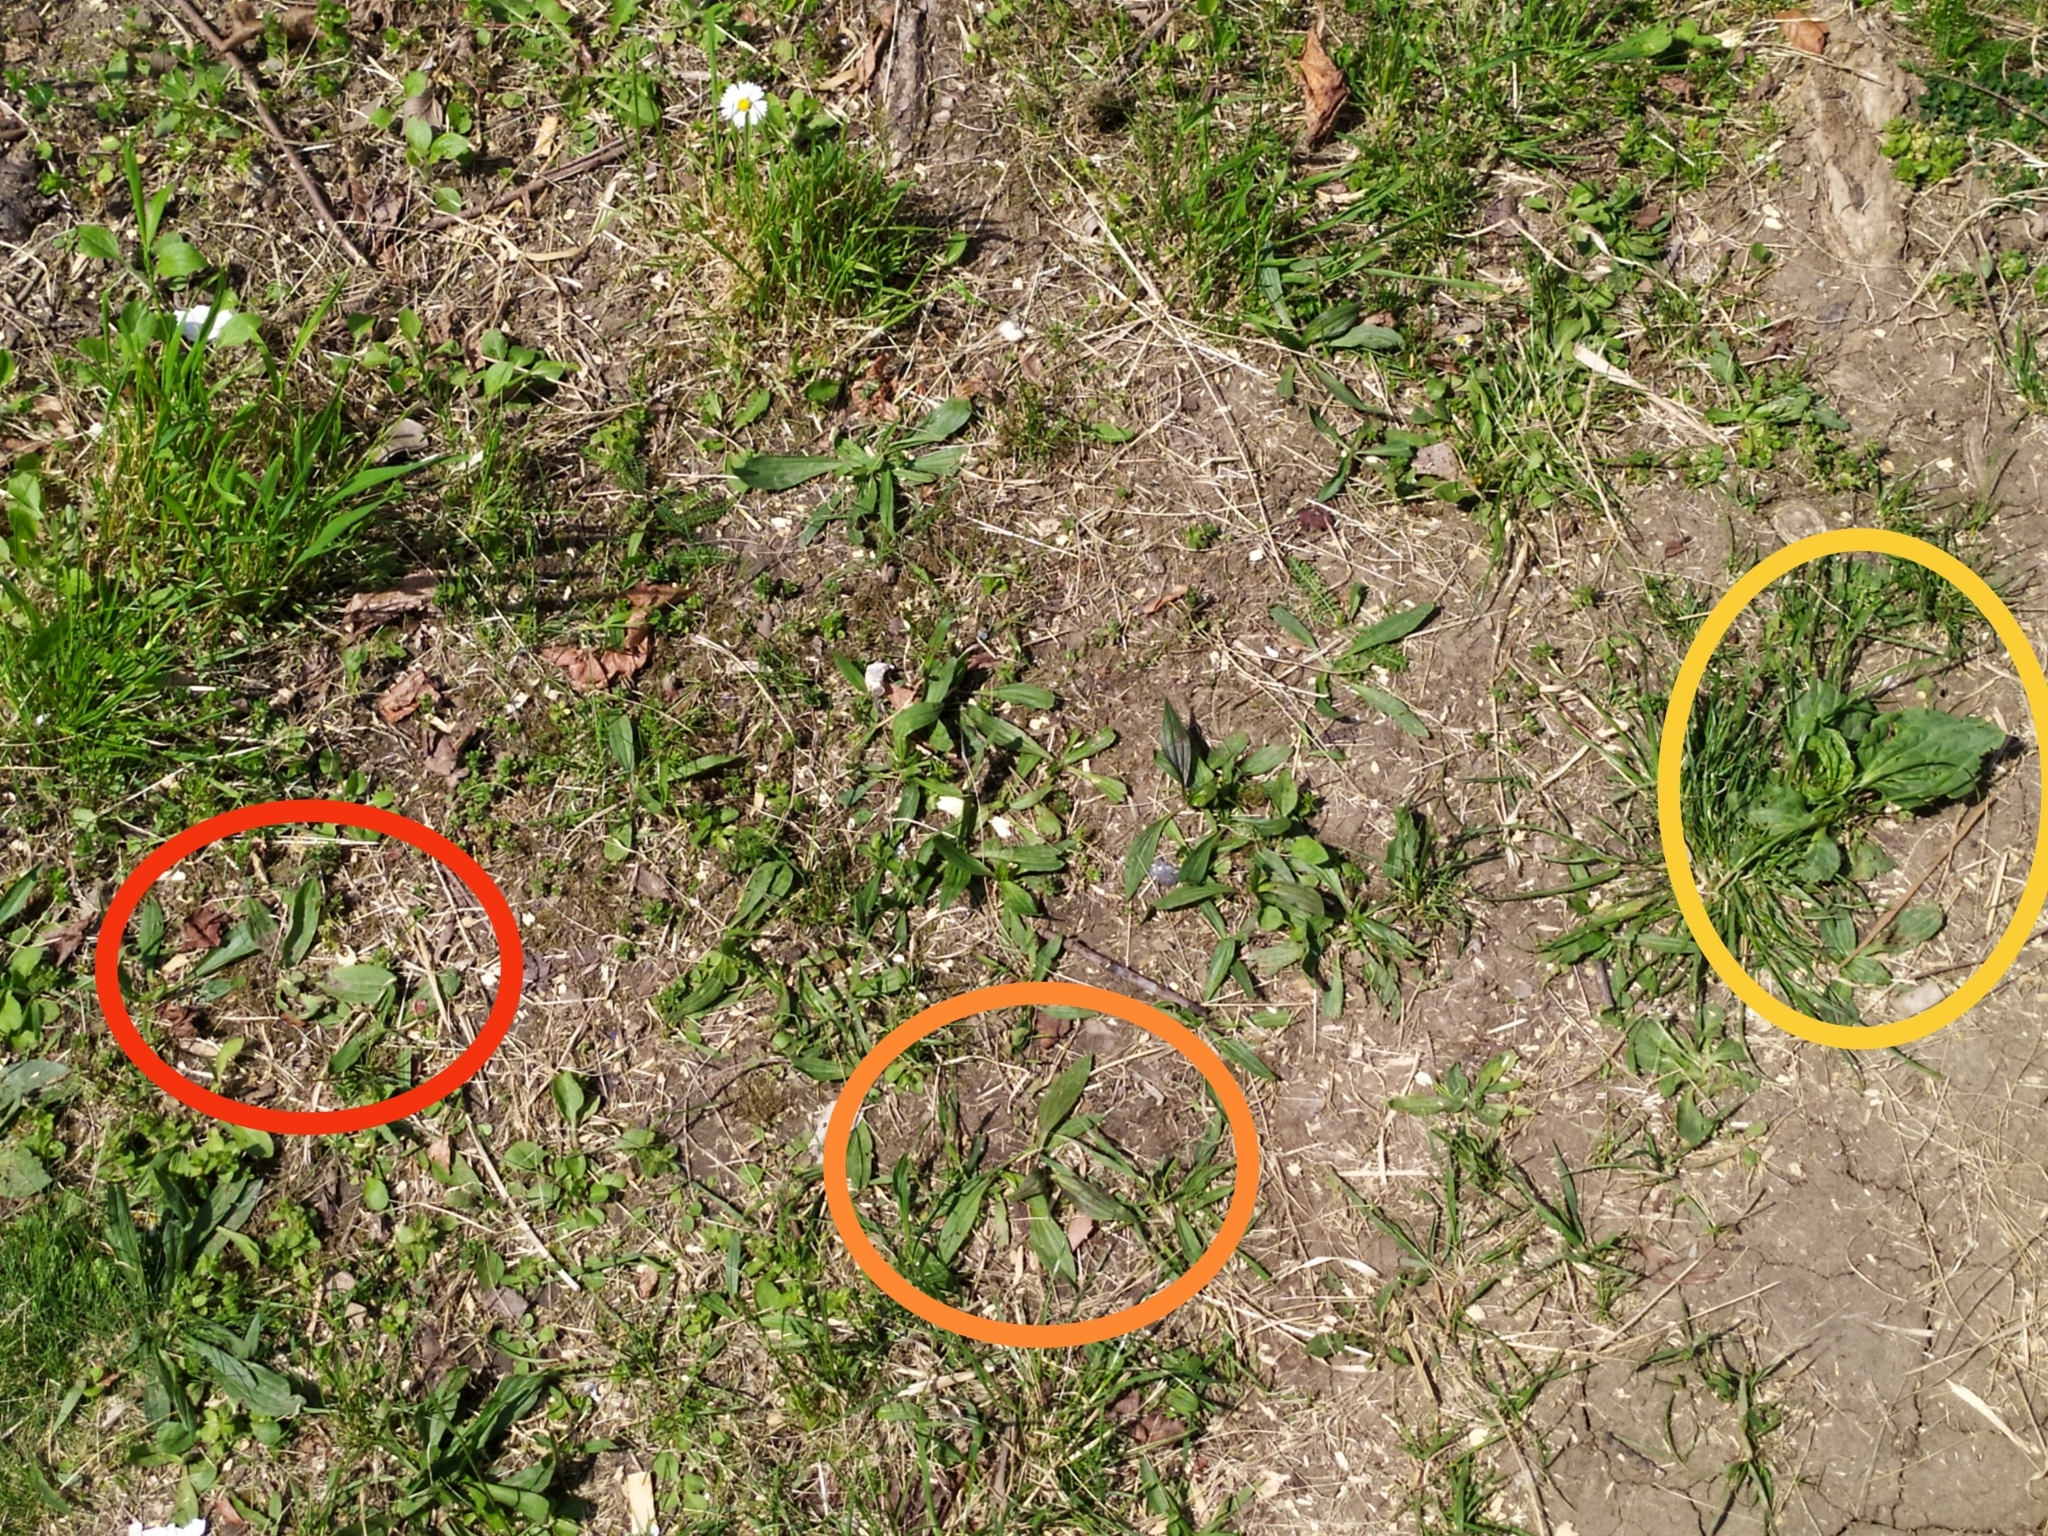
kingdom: Plantae
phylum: Tracheophyta
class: Magnoliopsida
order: Lamiales
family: Plantaginaceae
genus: Plantago
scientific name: Plantago media
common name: Hoary plantain
